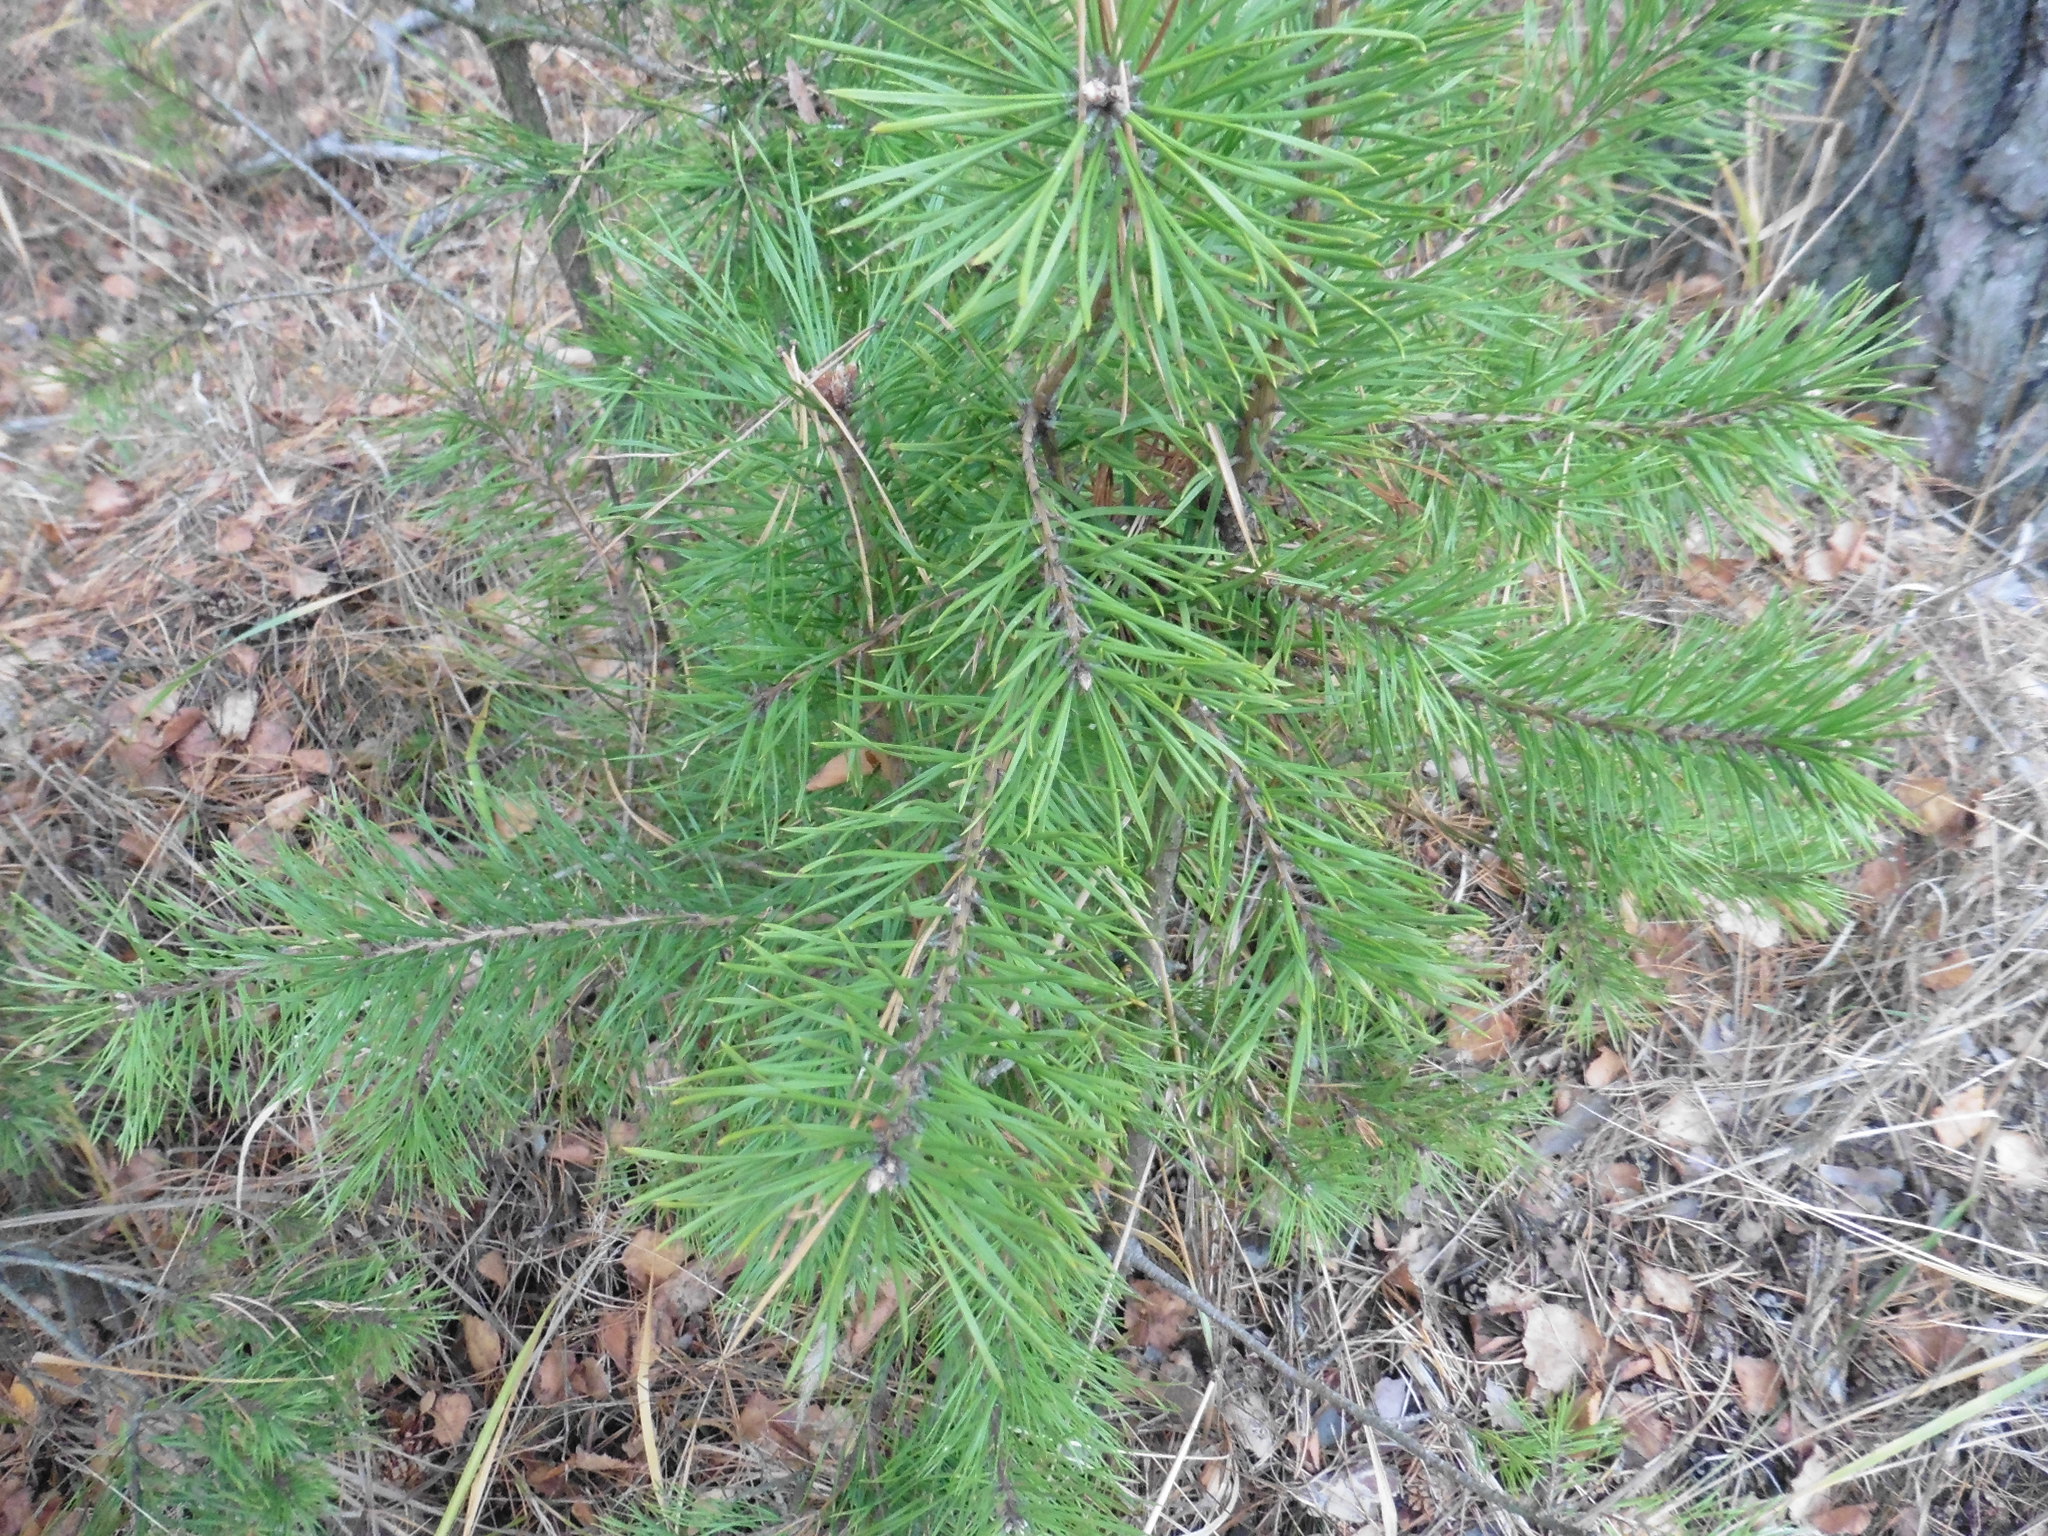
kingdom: Plantae
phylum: Tracheophyta
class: Pinopsida
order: Pinales
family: Pinaceae
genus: Pinus
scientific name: Pinus sylvestris
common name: Scots pine
